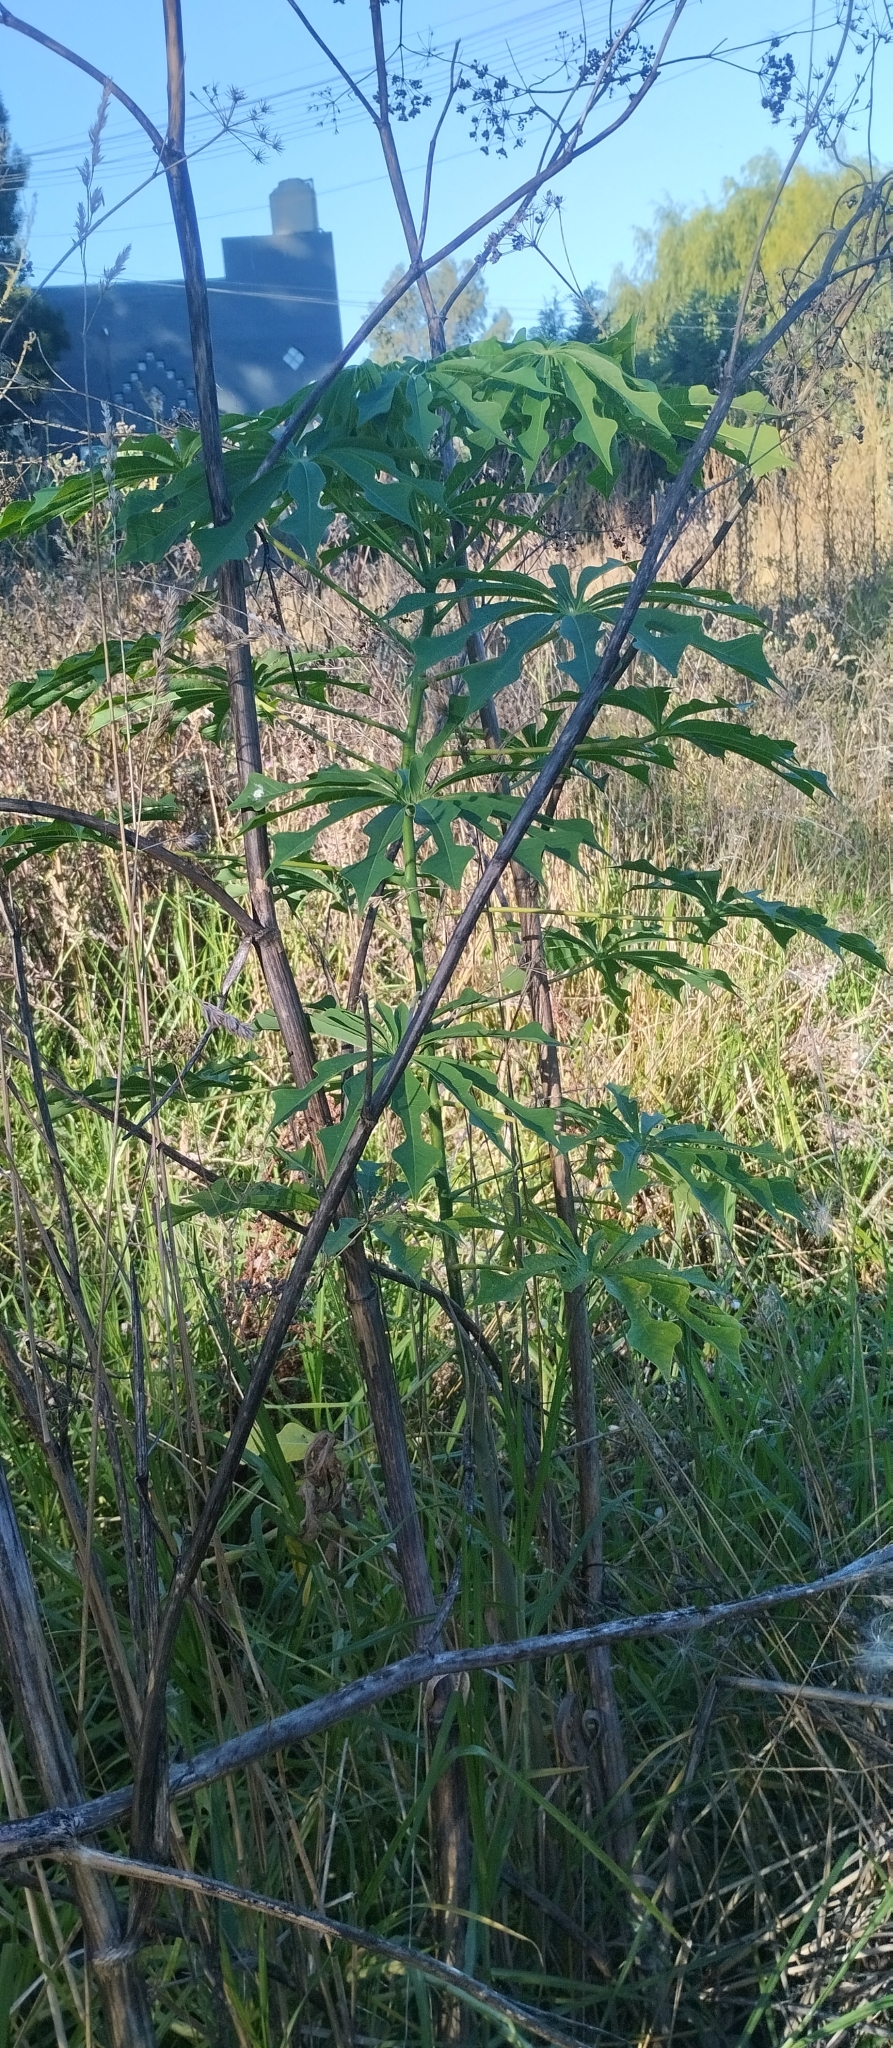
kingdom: Plantae
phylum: Tracheophyta
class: Magnoliopsida
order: Malpighiales
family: Euphorbiaceae
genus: Manihot
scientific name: Manihot grahamii
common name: Graham's manihot
